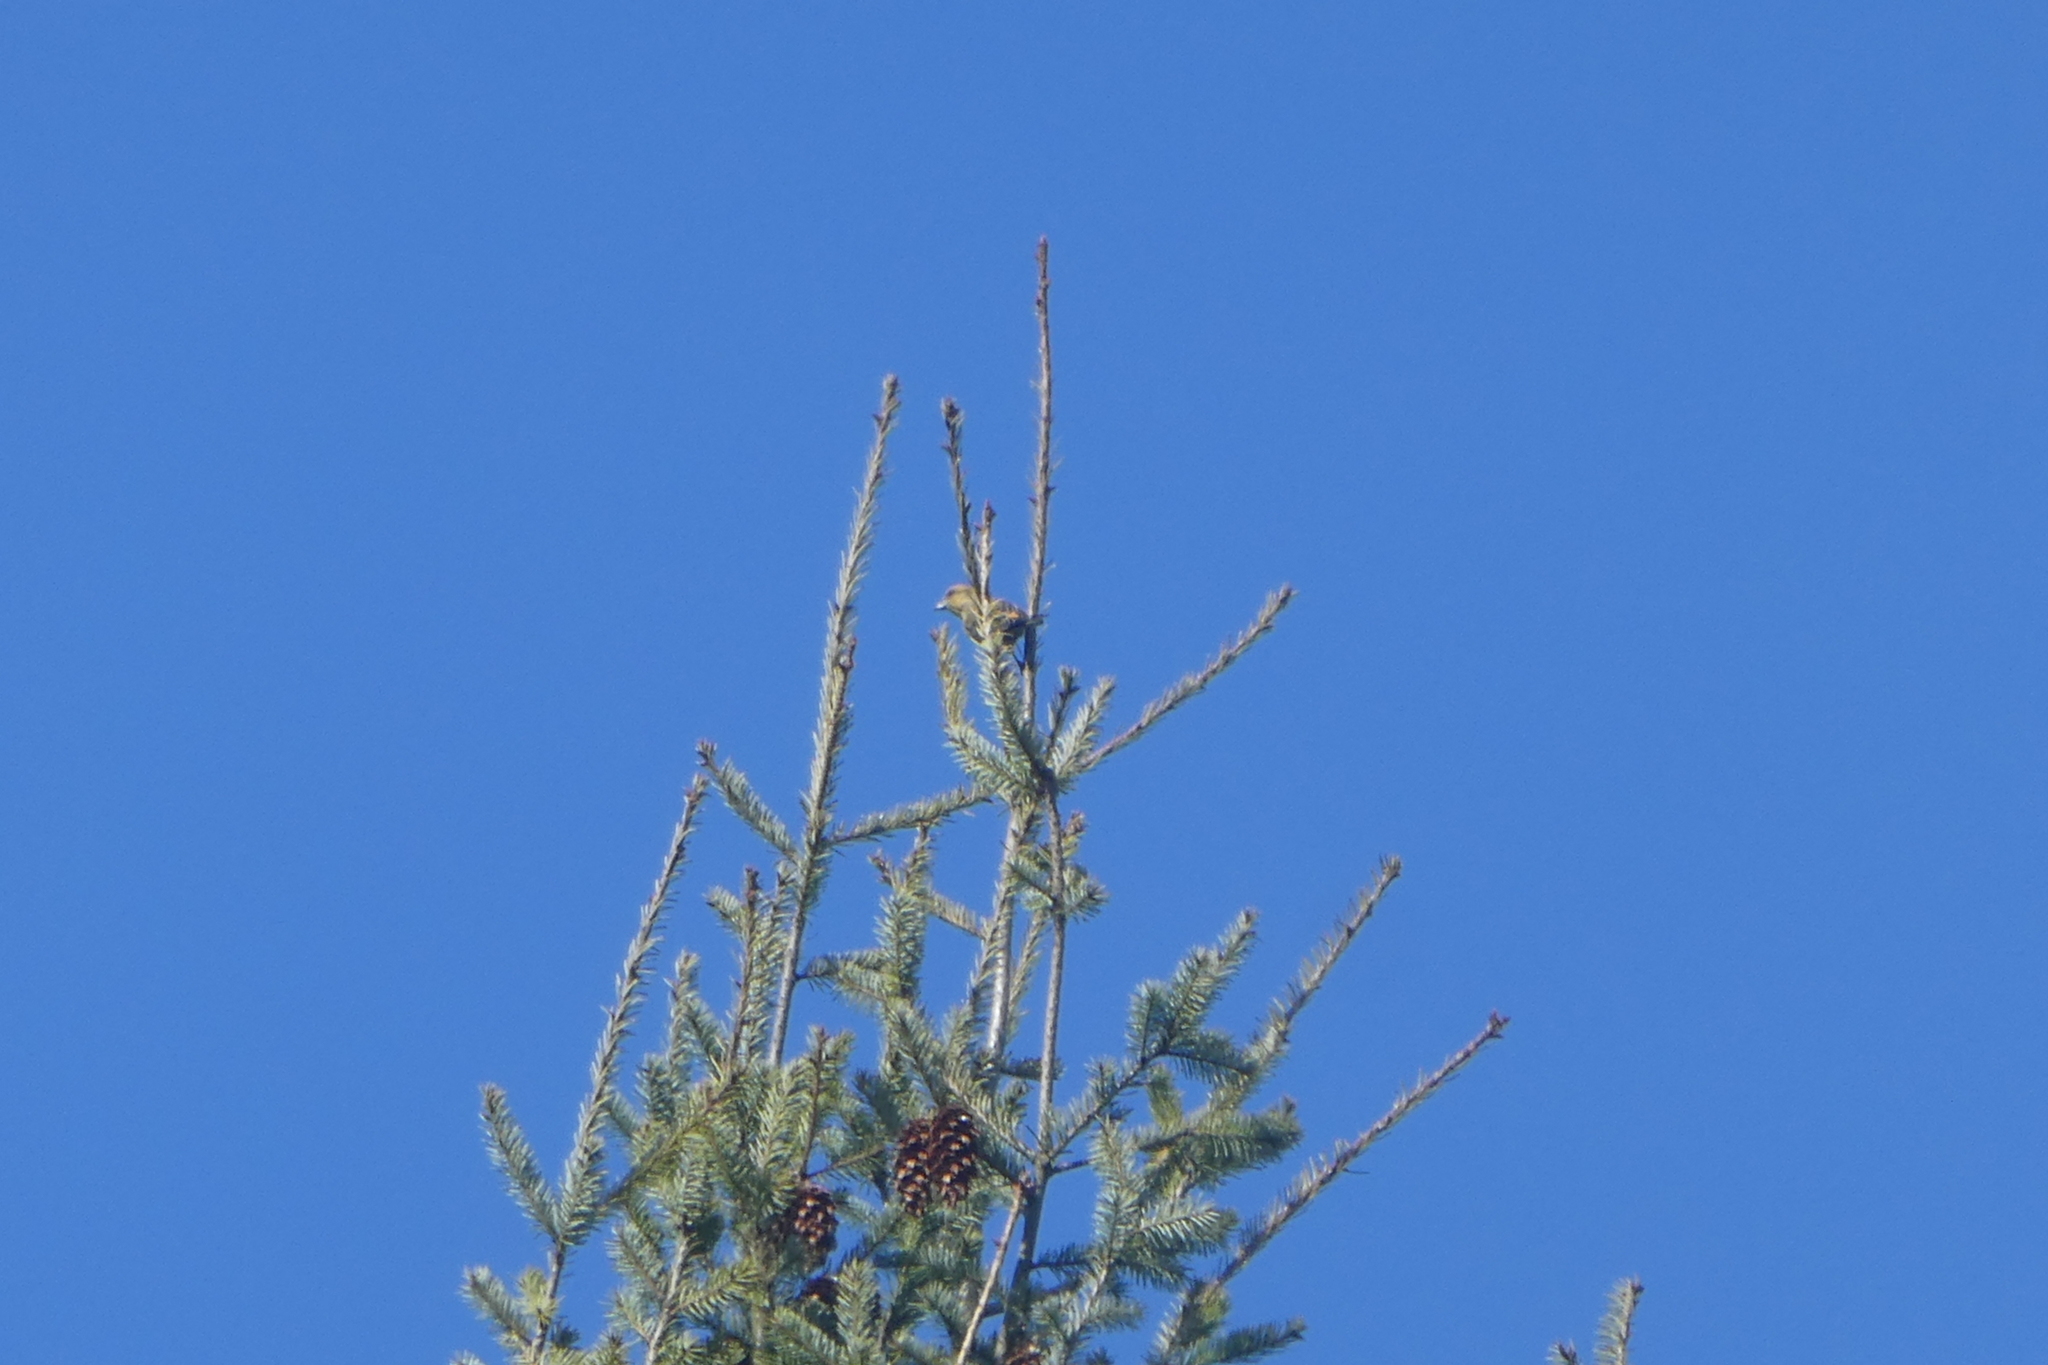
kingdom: Animalia
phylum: Chordata
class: Aves
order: Passeriformes
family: Fringillidae
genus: Loxia
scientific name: Loxia curvirostra
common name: Red crossbill
